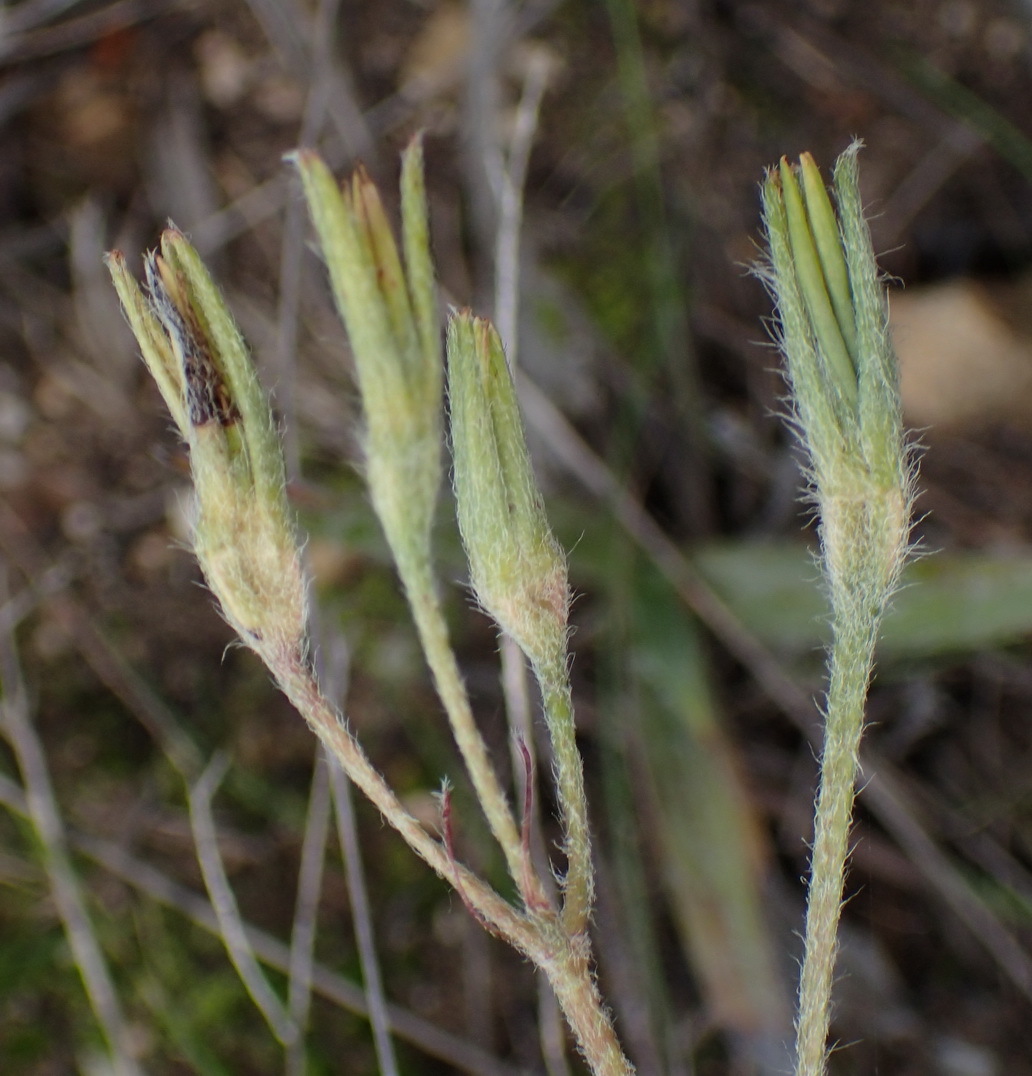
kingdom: Plantae
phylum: Tracheophyta
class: Liliopsida
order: Asparagales
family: Hypoxidaceae
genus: Hypoxis
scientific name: Hypoxis villosa
